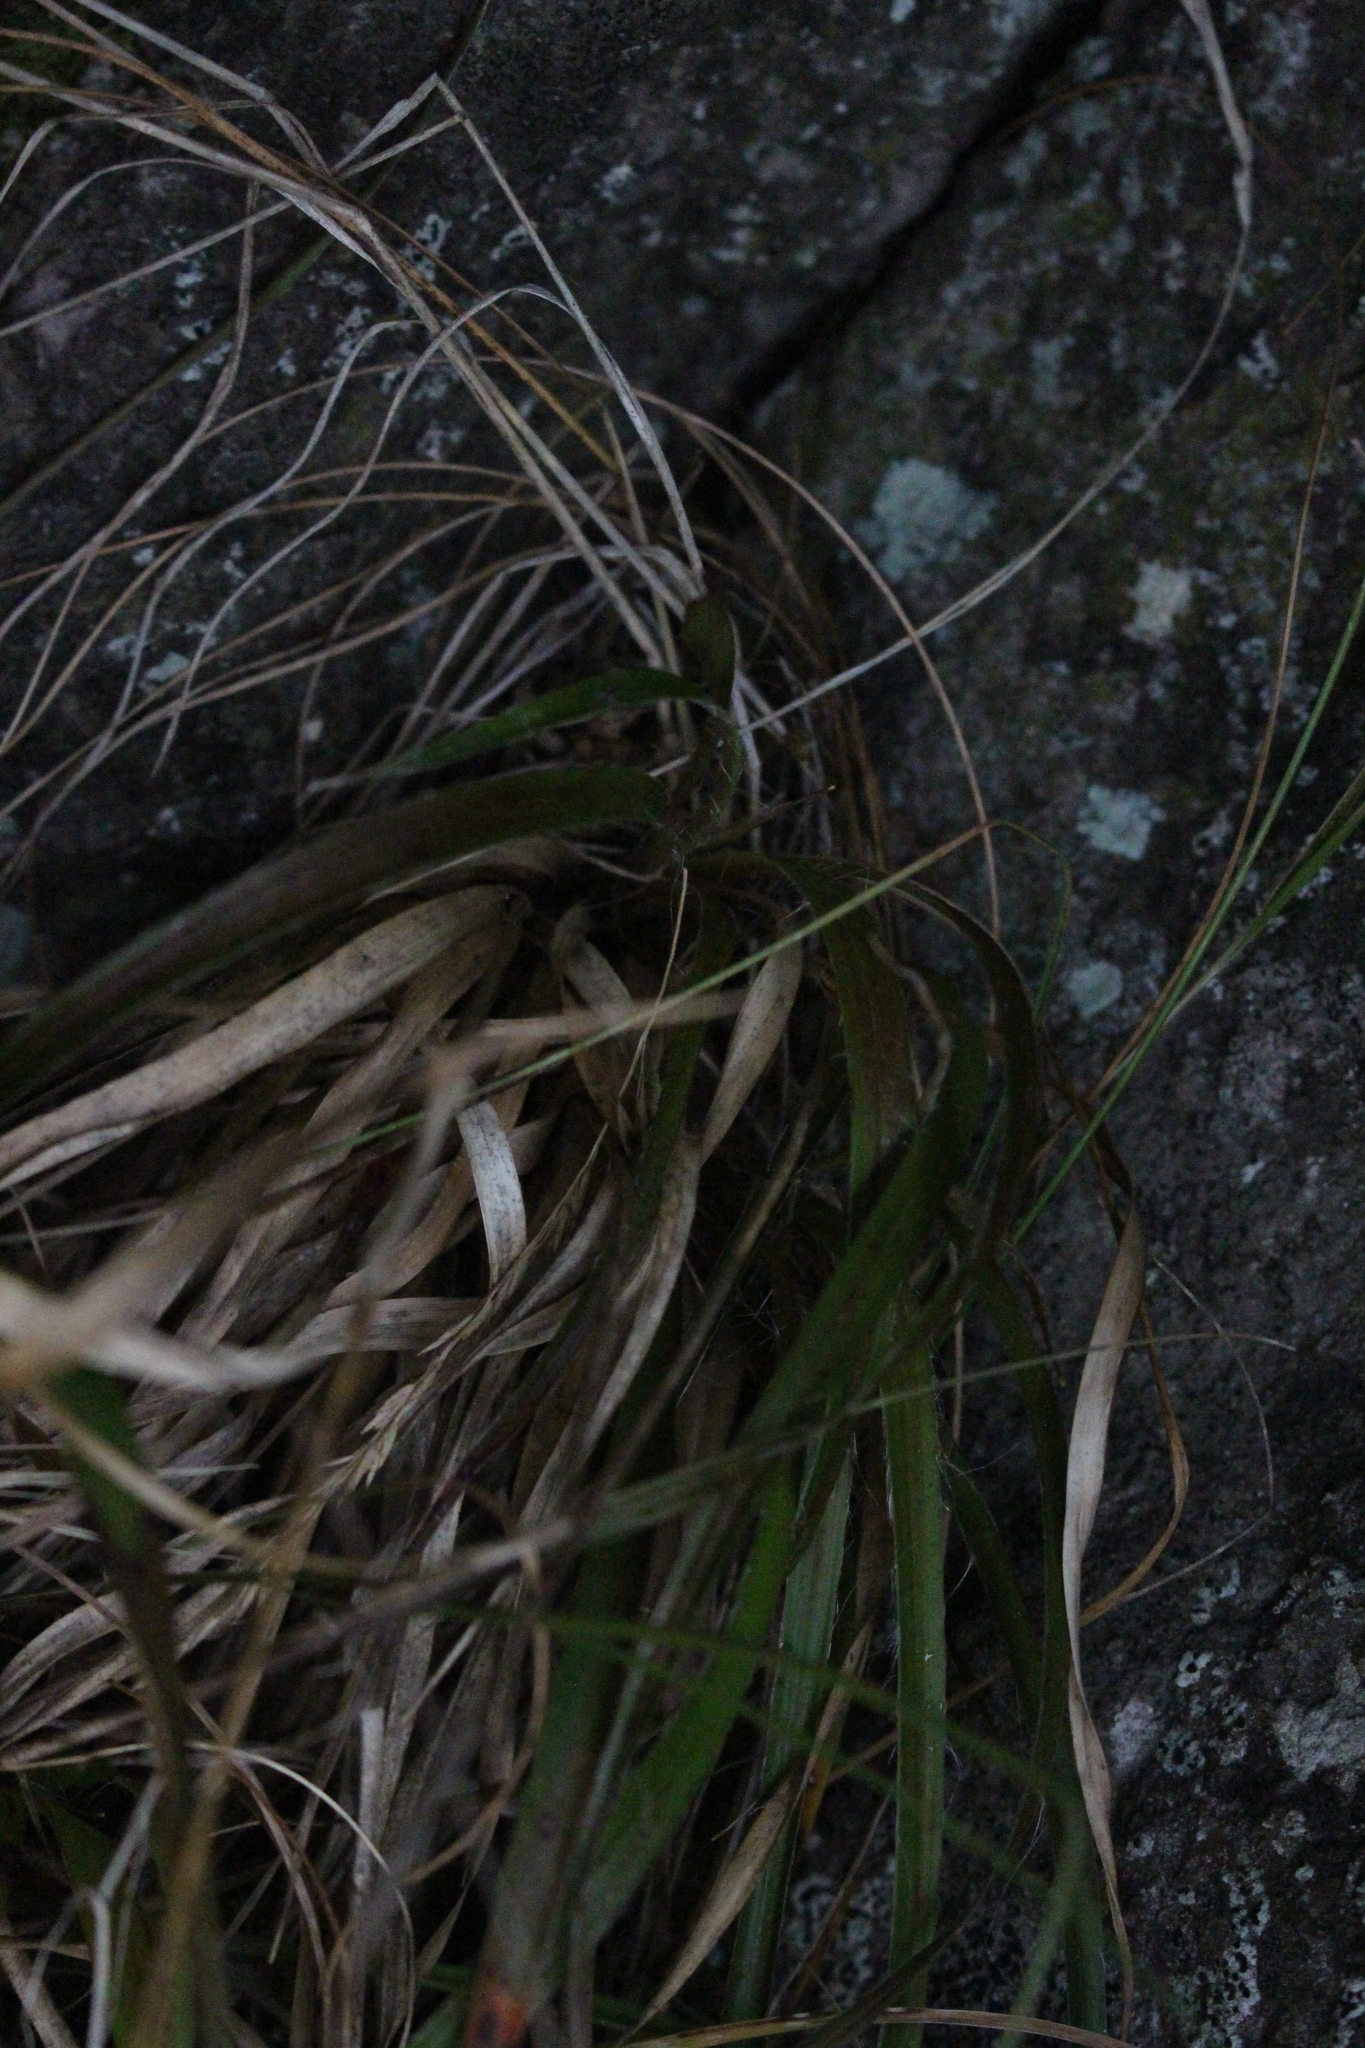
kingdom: Plantae
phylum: Tracheophyta
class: Liliopsida
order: Poales
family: Juncaceae
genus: Luzula
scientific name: Luzula banksiana
